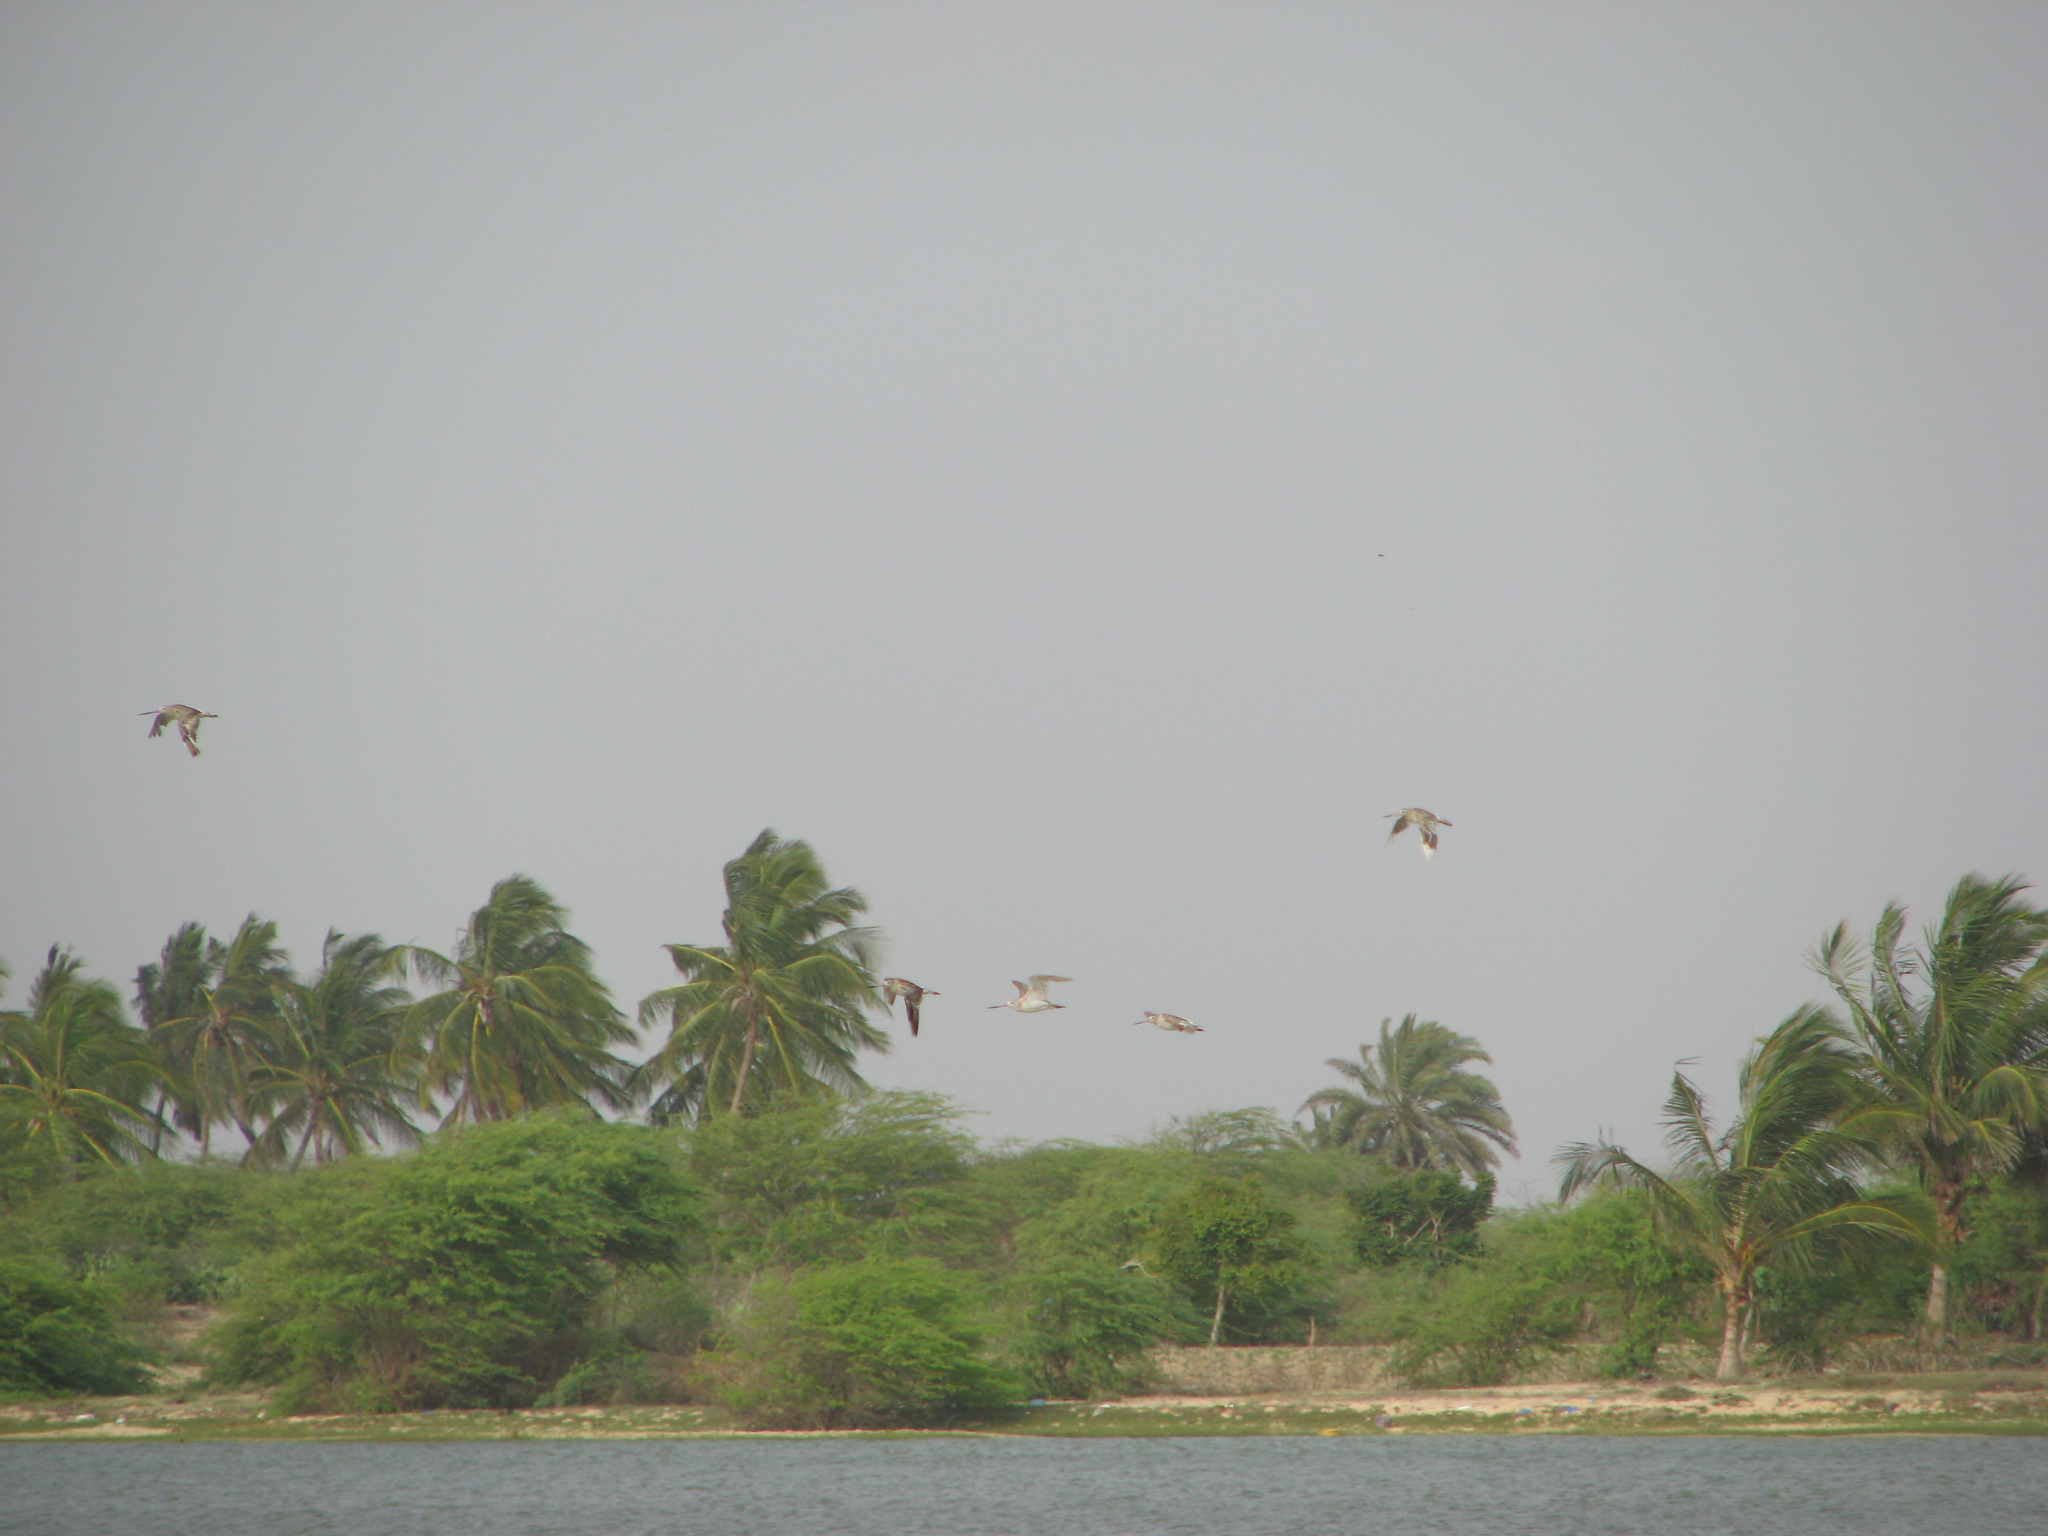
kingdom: Animalia
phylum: Chordata
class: Aves
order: Charadriiformes
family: Scolopacidae
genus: Limosa
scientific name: Limosa lapponica
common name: Bar-tailed godwit
